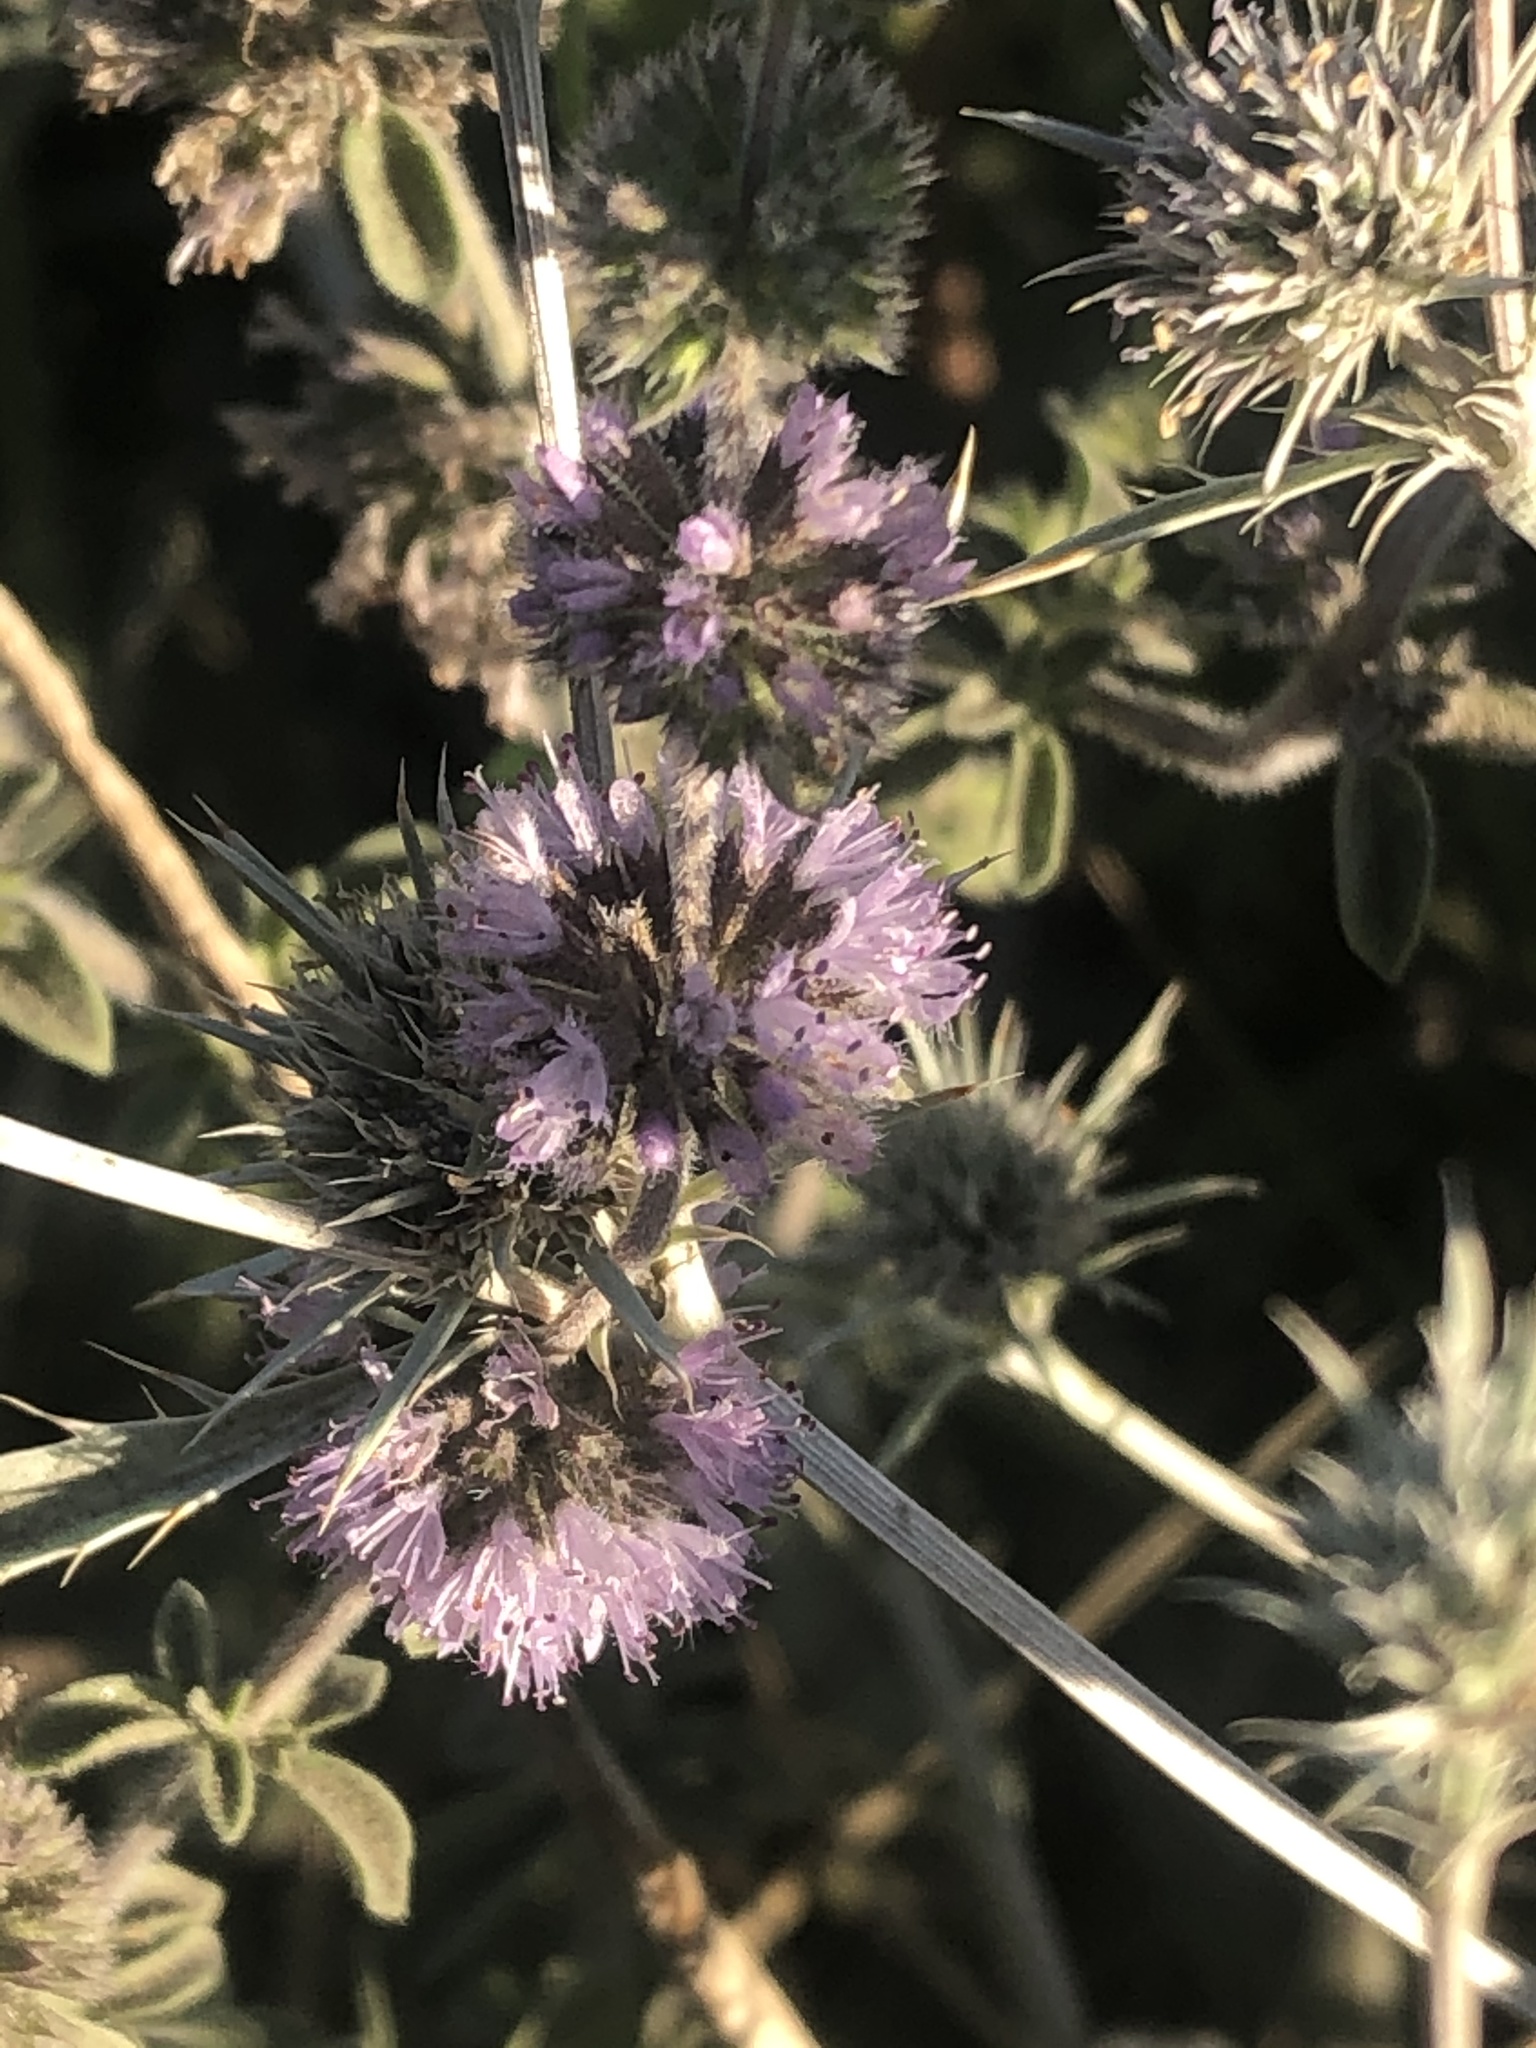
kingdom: Plantae
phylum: Tracheophyta
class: Magnoliopsida
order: Lamiales
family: Lamiaceae
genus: Mentha
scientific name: Mentha pulegium
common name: Pennyroyal
